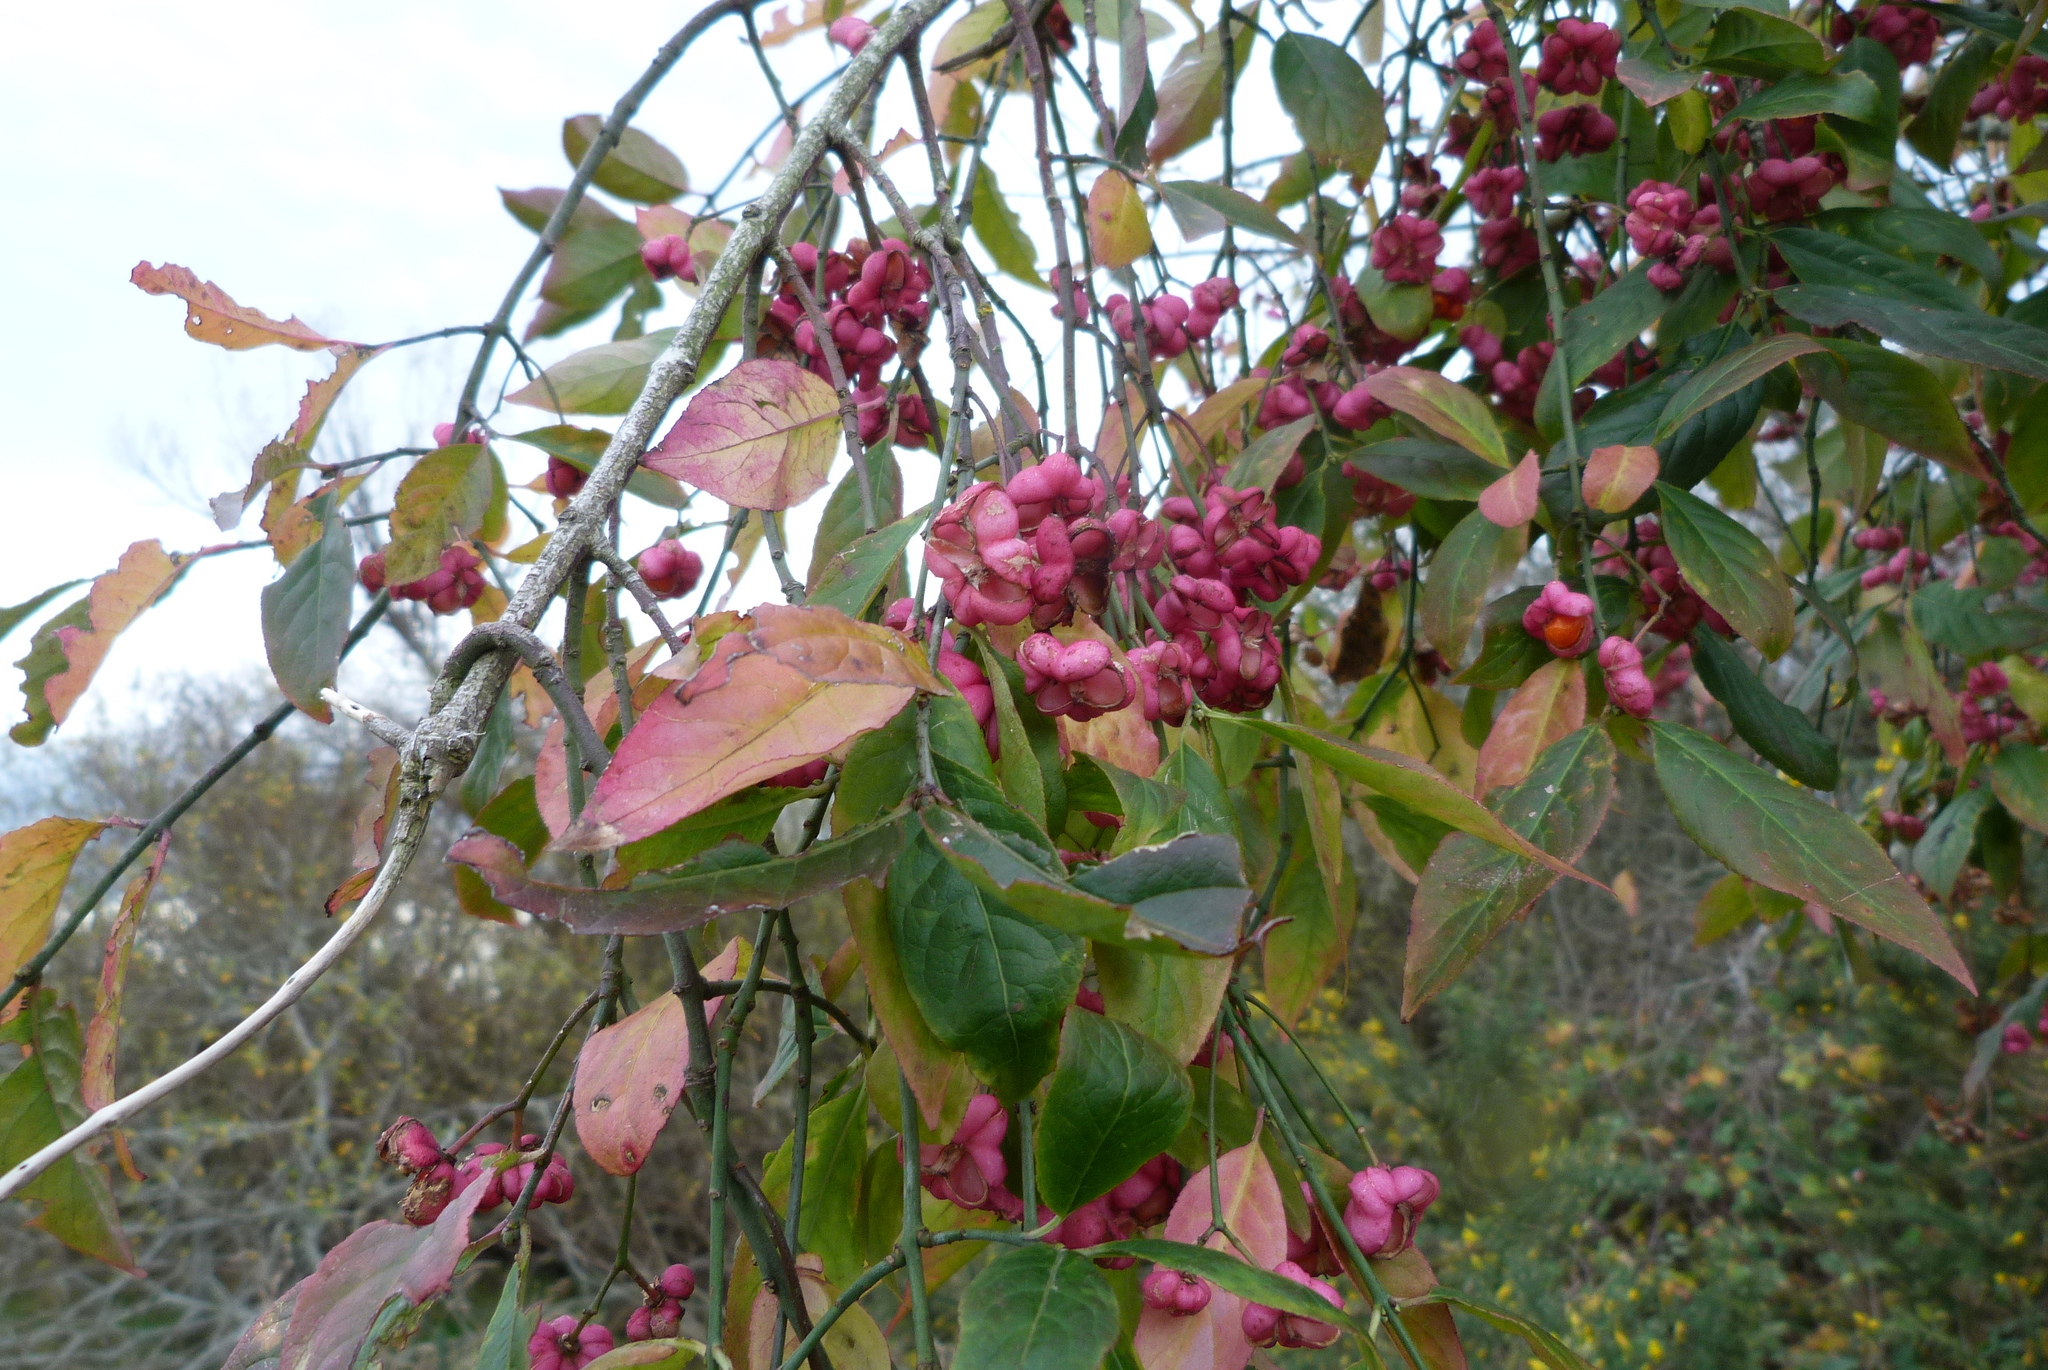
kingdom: Plantae
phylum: Tracheophyta
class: Magnoliopsida
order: Celastrales
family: Celastraceae
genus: Euonymus
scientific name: Euonymus europaeus
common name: Spindle
